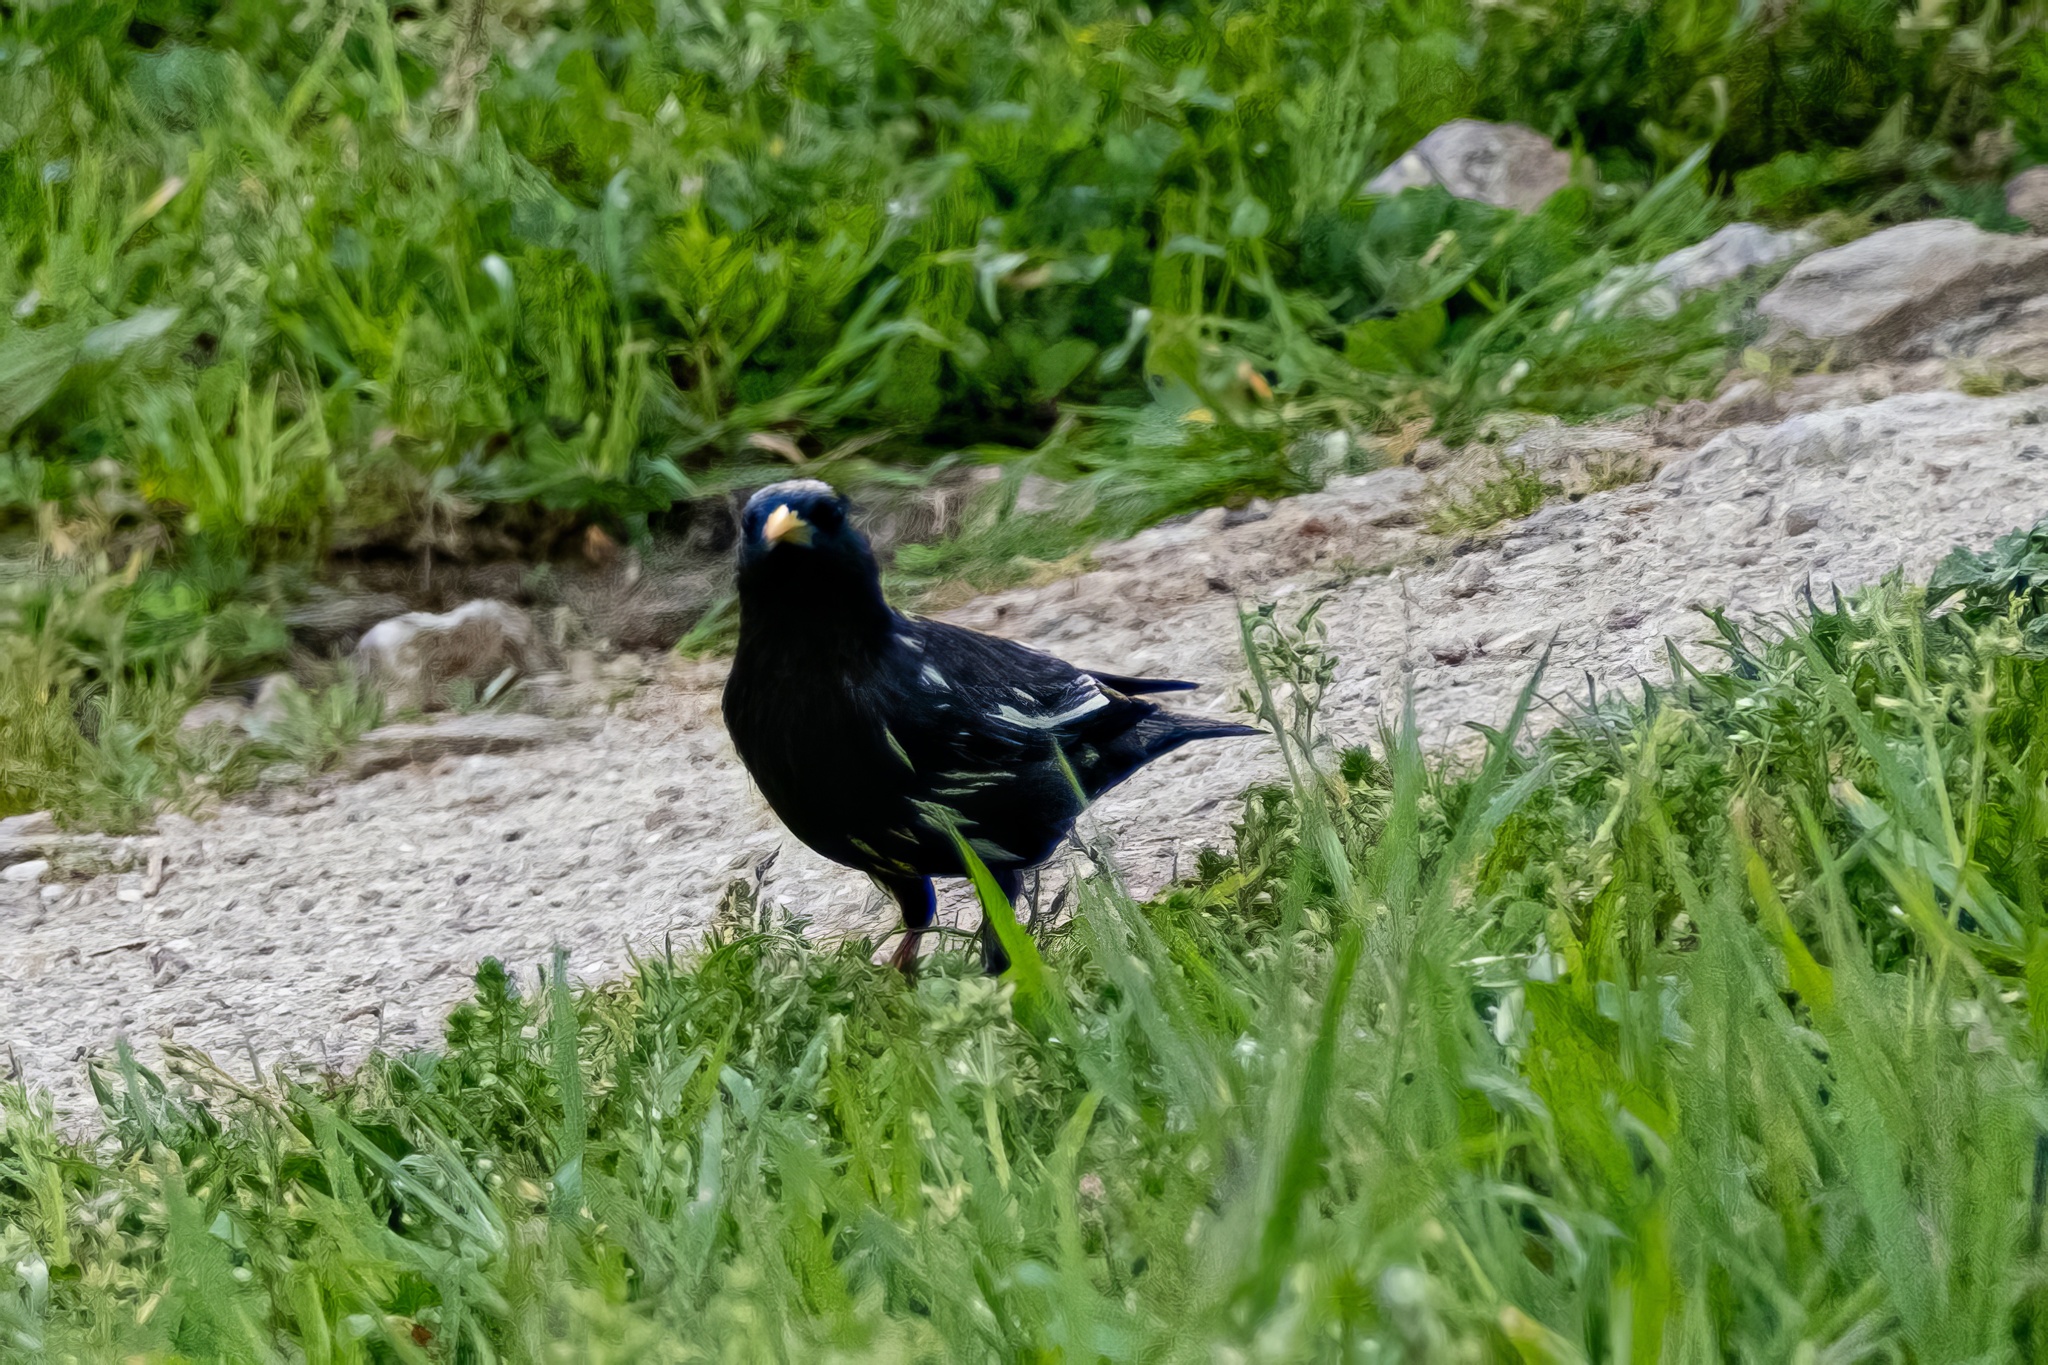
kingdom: Animalia
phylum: Chordata
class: Aves
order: Passeriformes
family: Sturnidae
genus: Sturnus
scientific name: Sturnus unicolor
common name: Spotless starling
